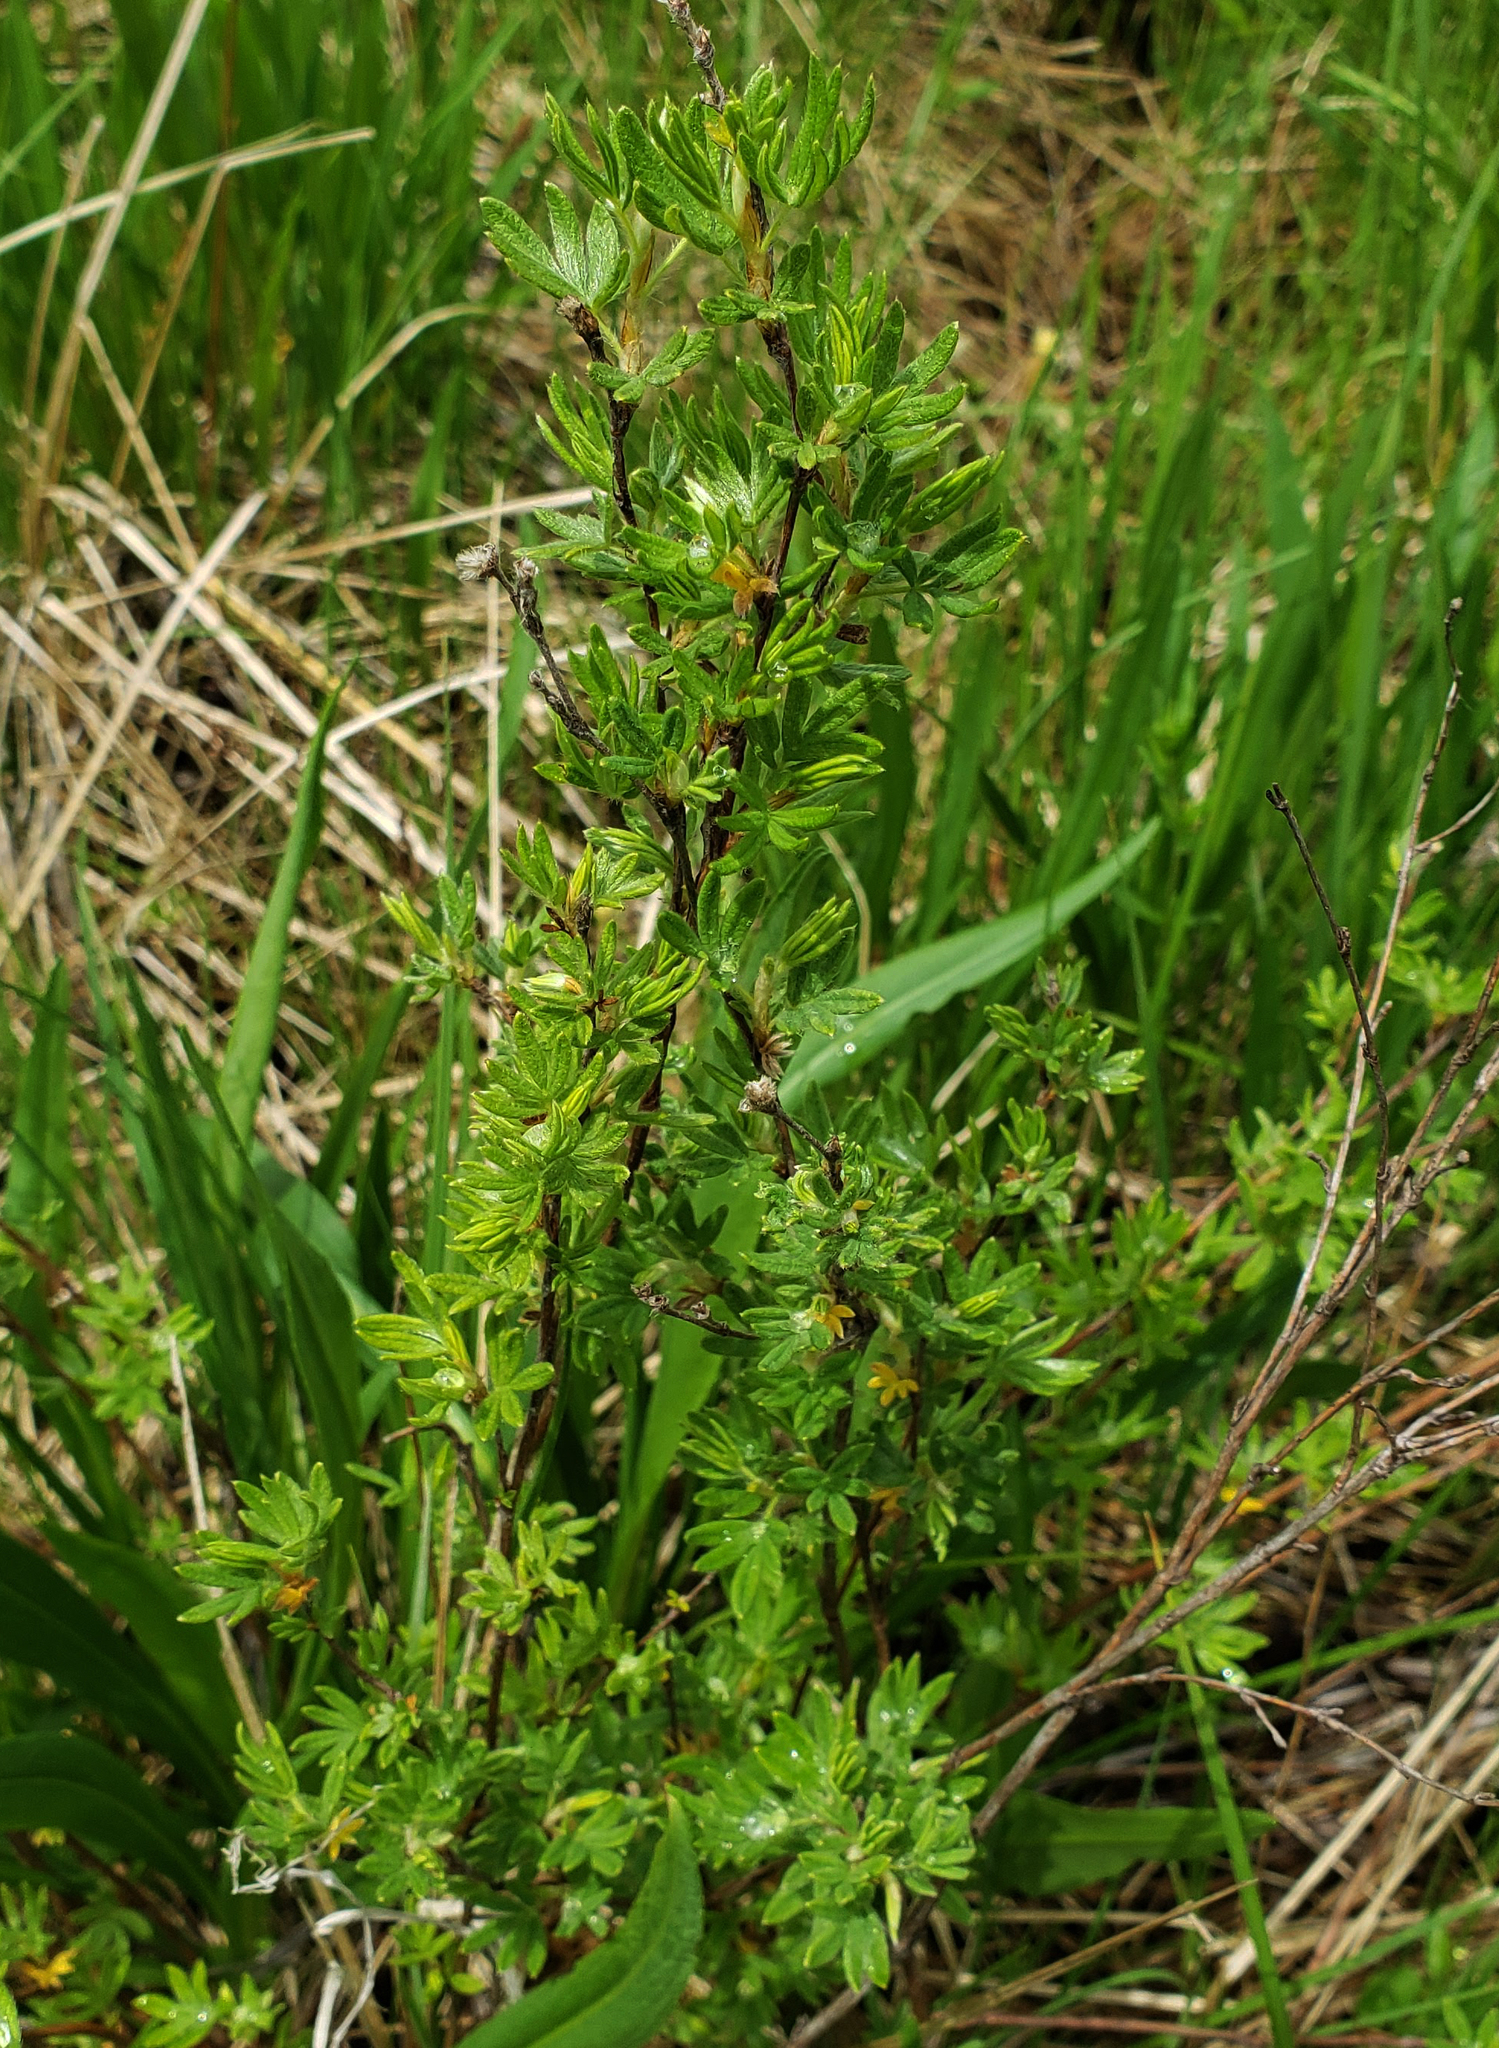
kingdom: Plantae
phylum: Tracheophyta
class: Magnoliopsida
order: Rosales
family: Rosaceae
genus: Dasiphora
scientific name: Dasiphora fruticosa
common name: Shrubby cinquefoil
